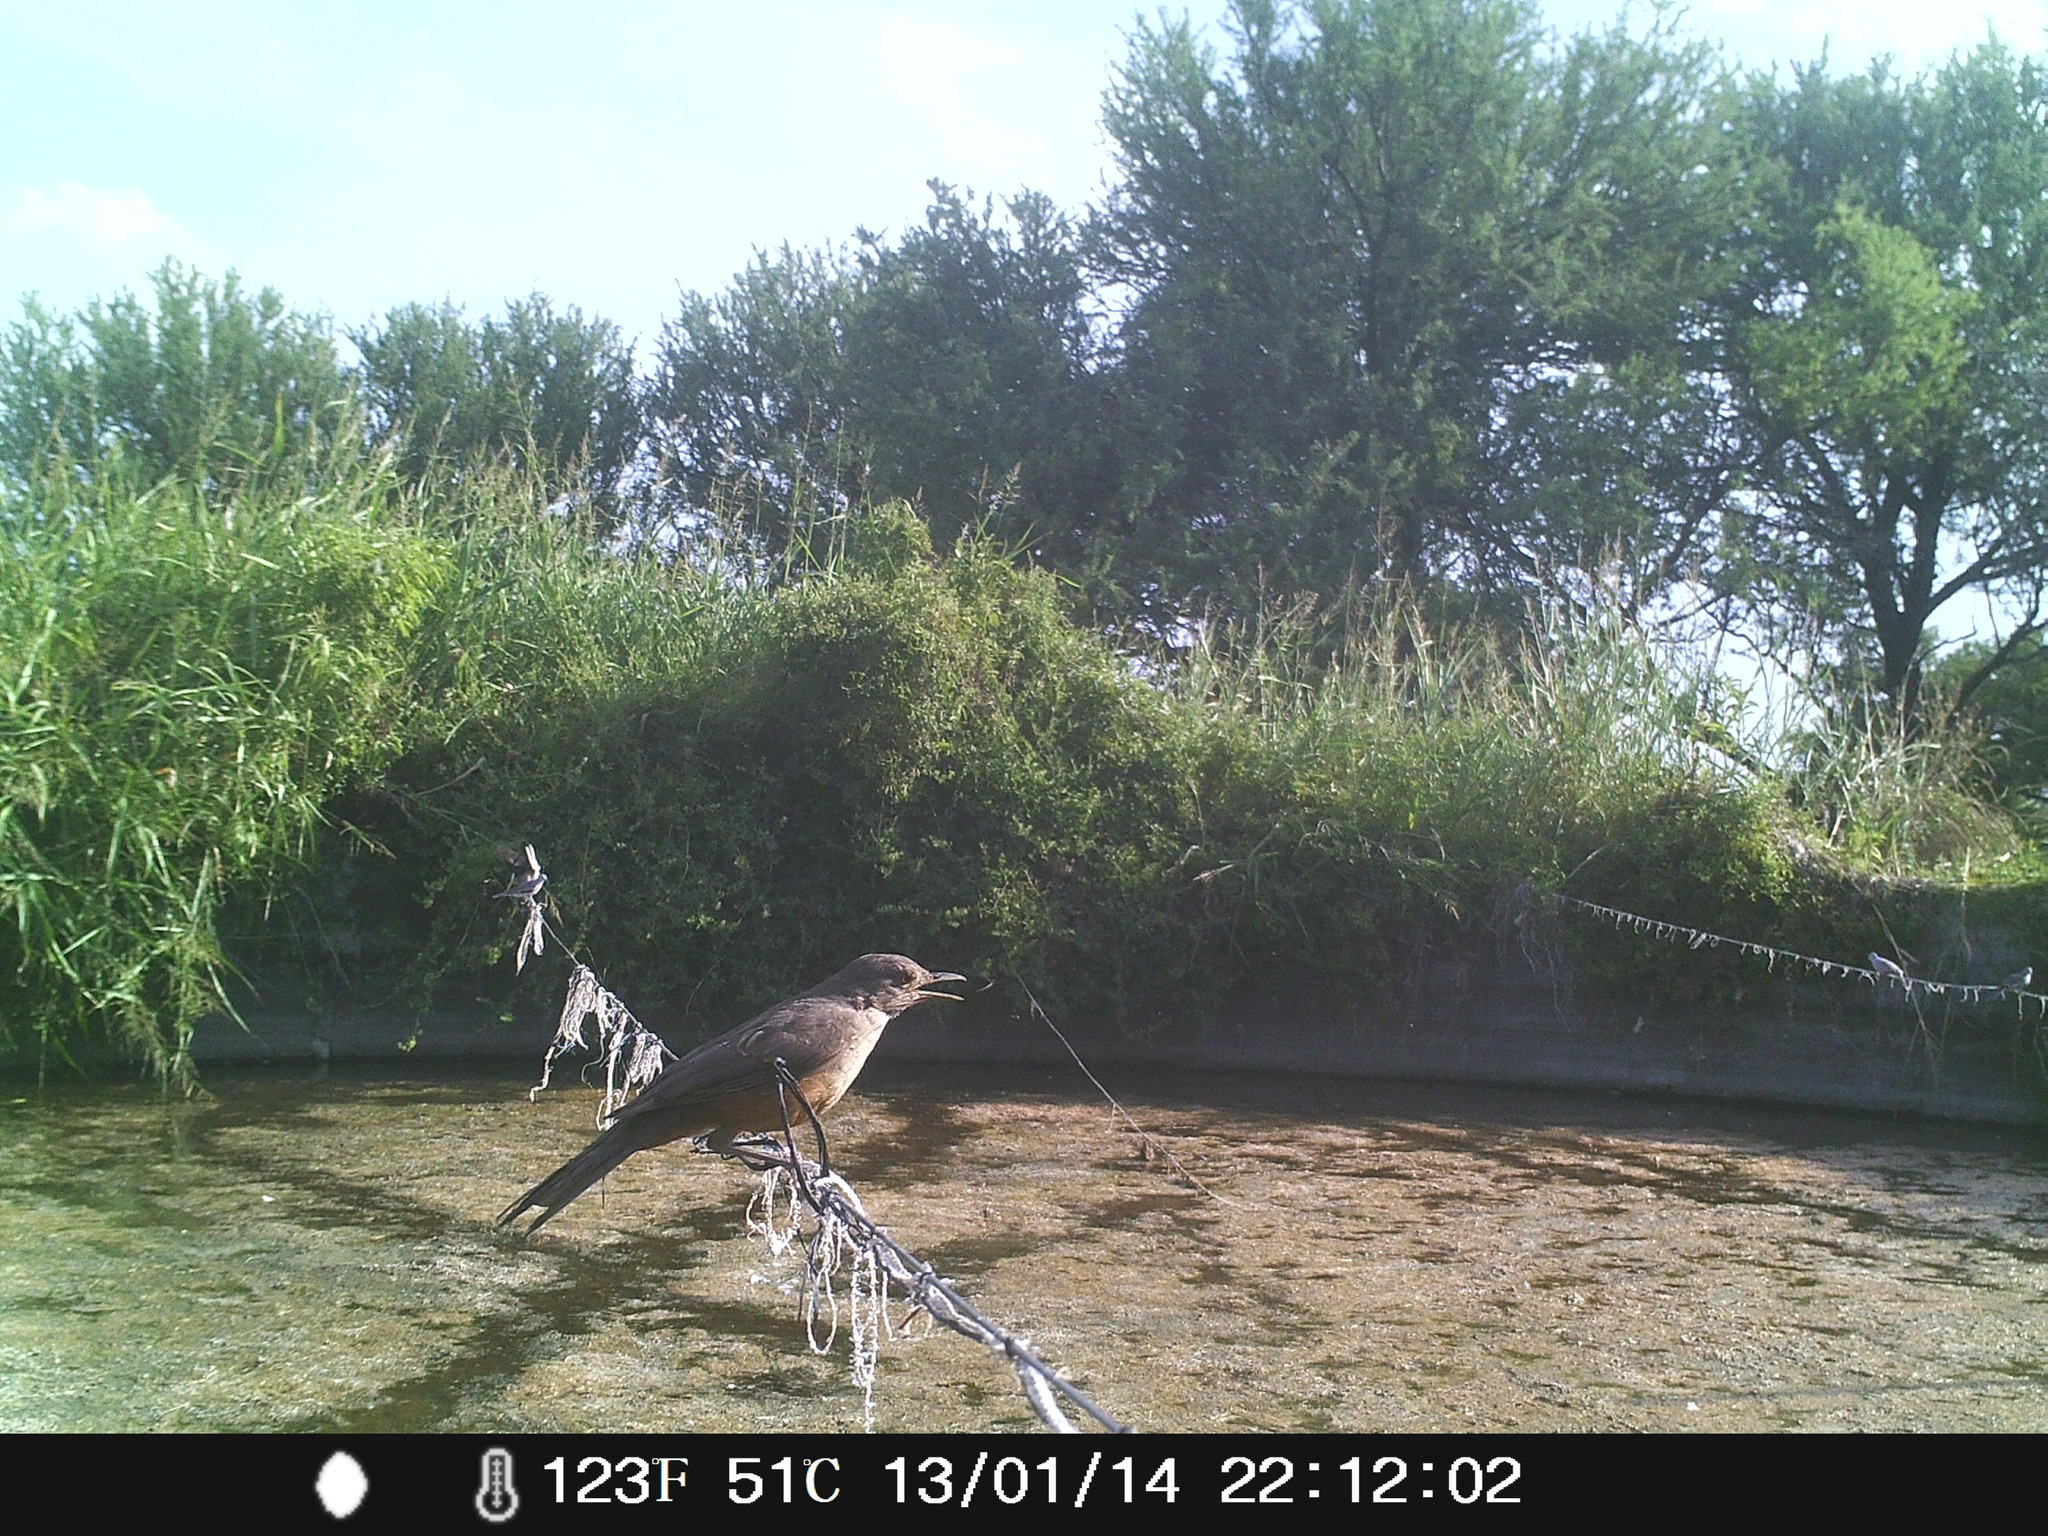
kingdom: Animalia
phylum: Chordata
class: Aves
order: Passeriformes
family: Turdidae
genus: Turdus
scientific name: Turdus rufiventris
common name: Rufous-bellied thrush
